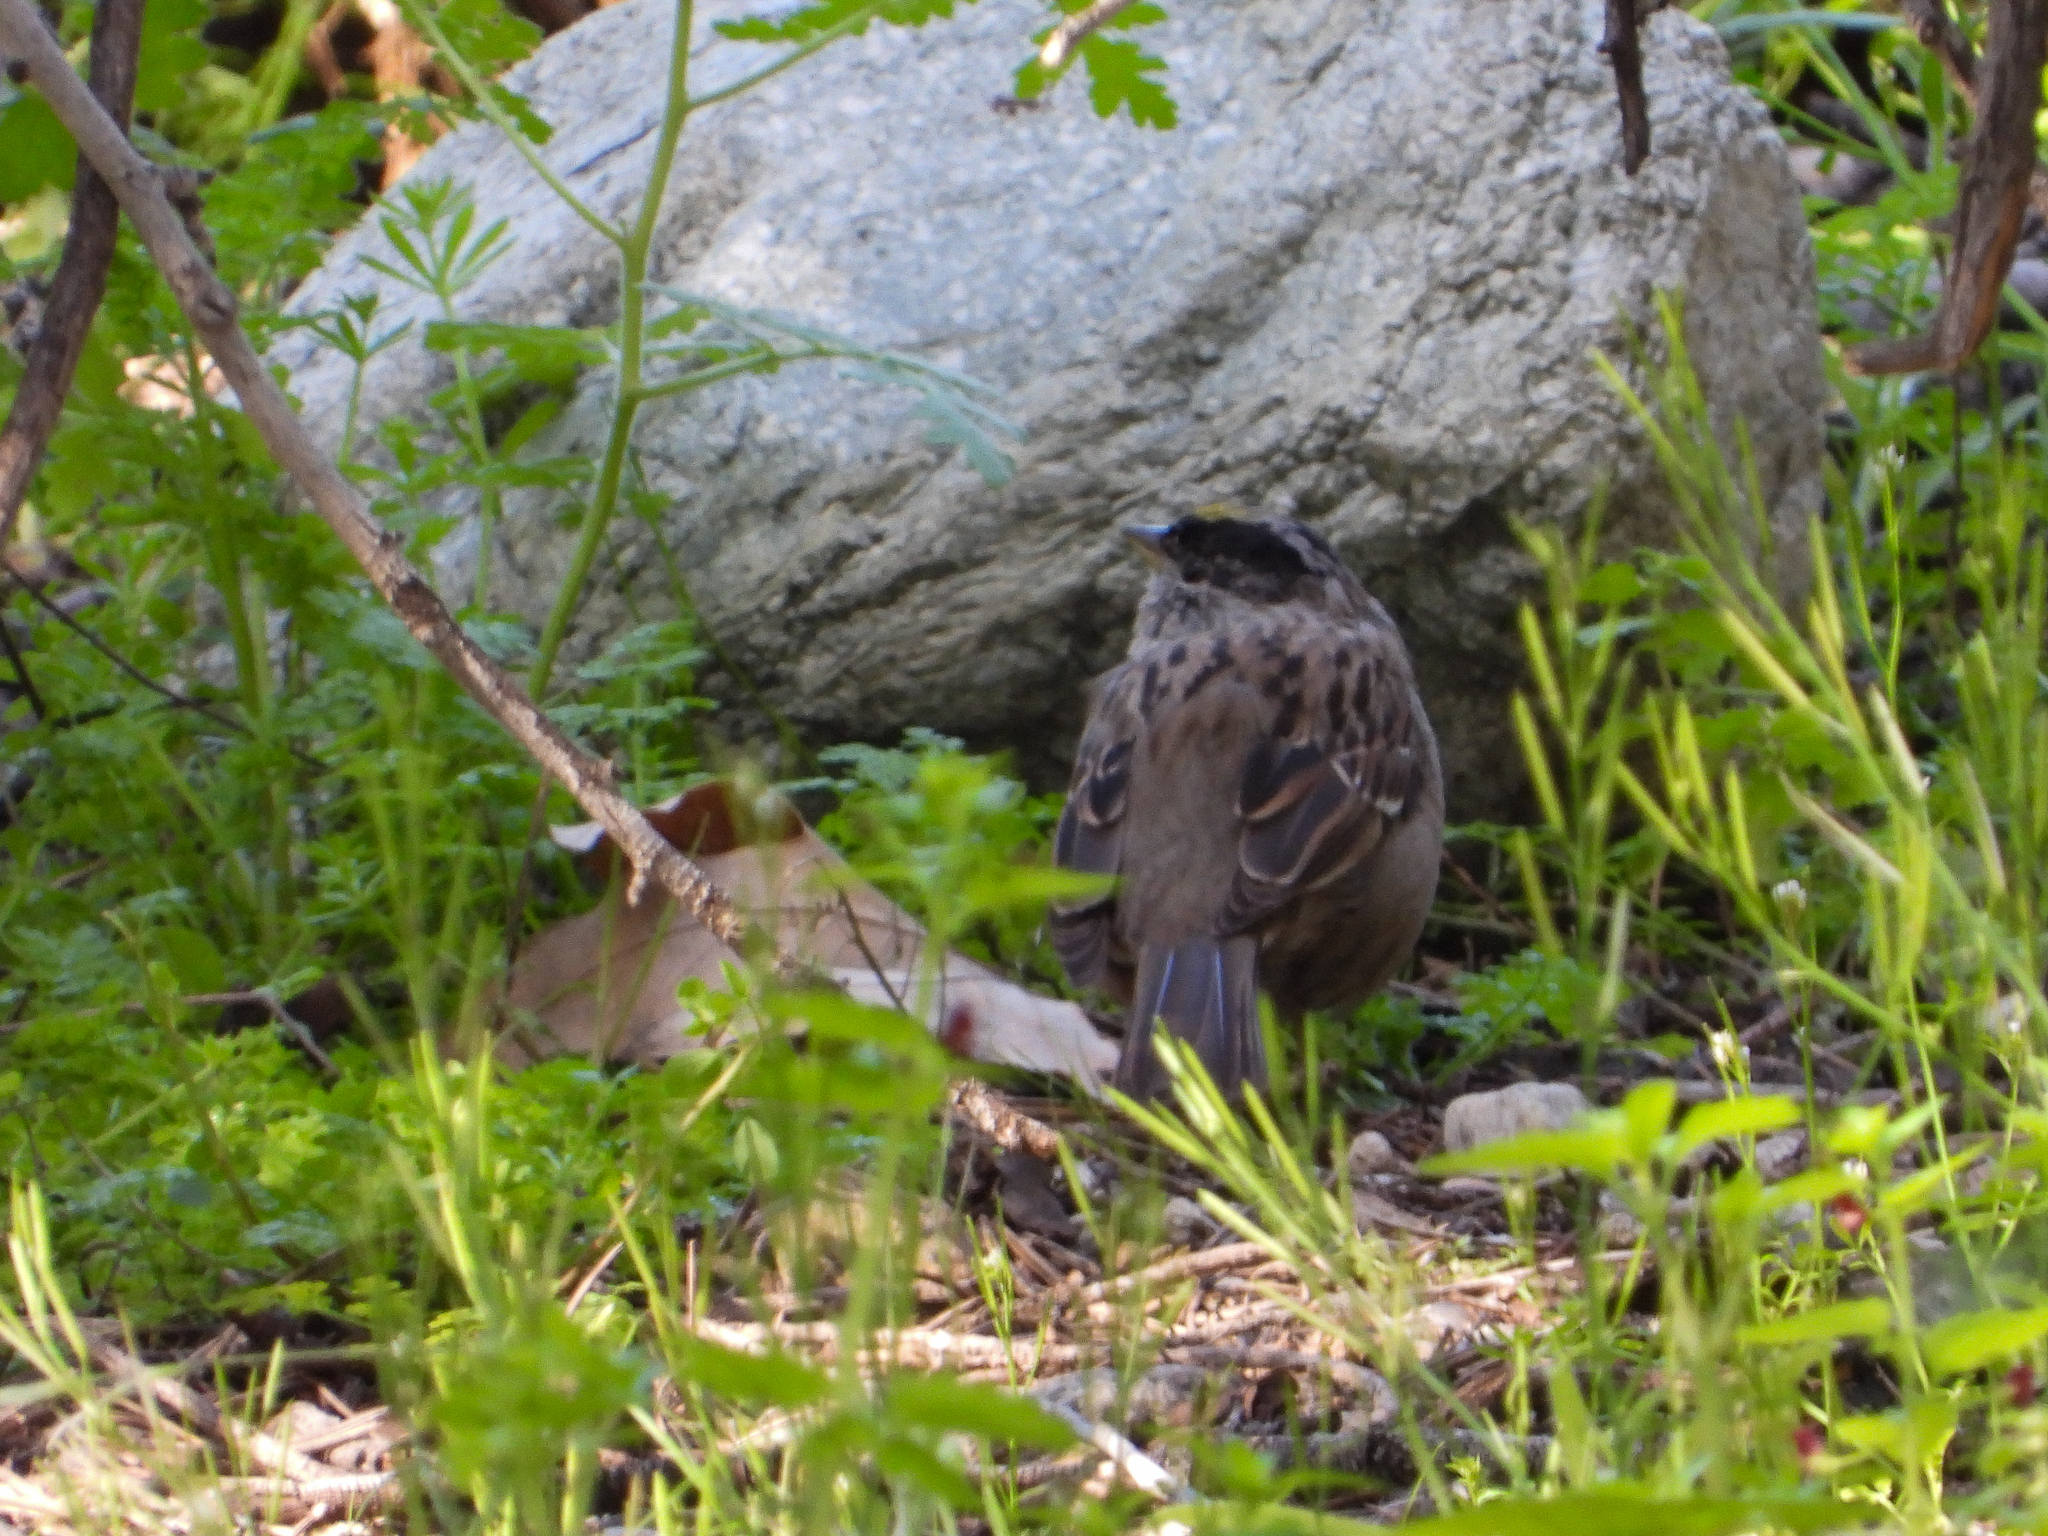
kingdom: Animalia
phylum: Chordata
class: Aves
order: Passeriformes
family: Passerellidae
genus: Zonotrichia
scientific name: Zonotrichia atricapilla
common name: Golden-crowned sparrow
